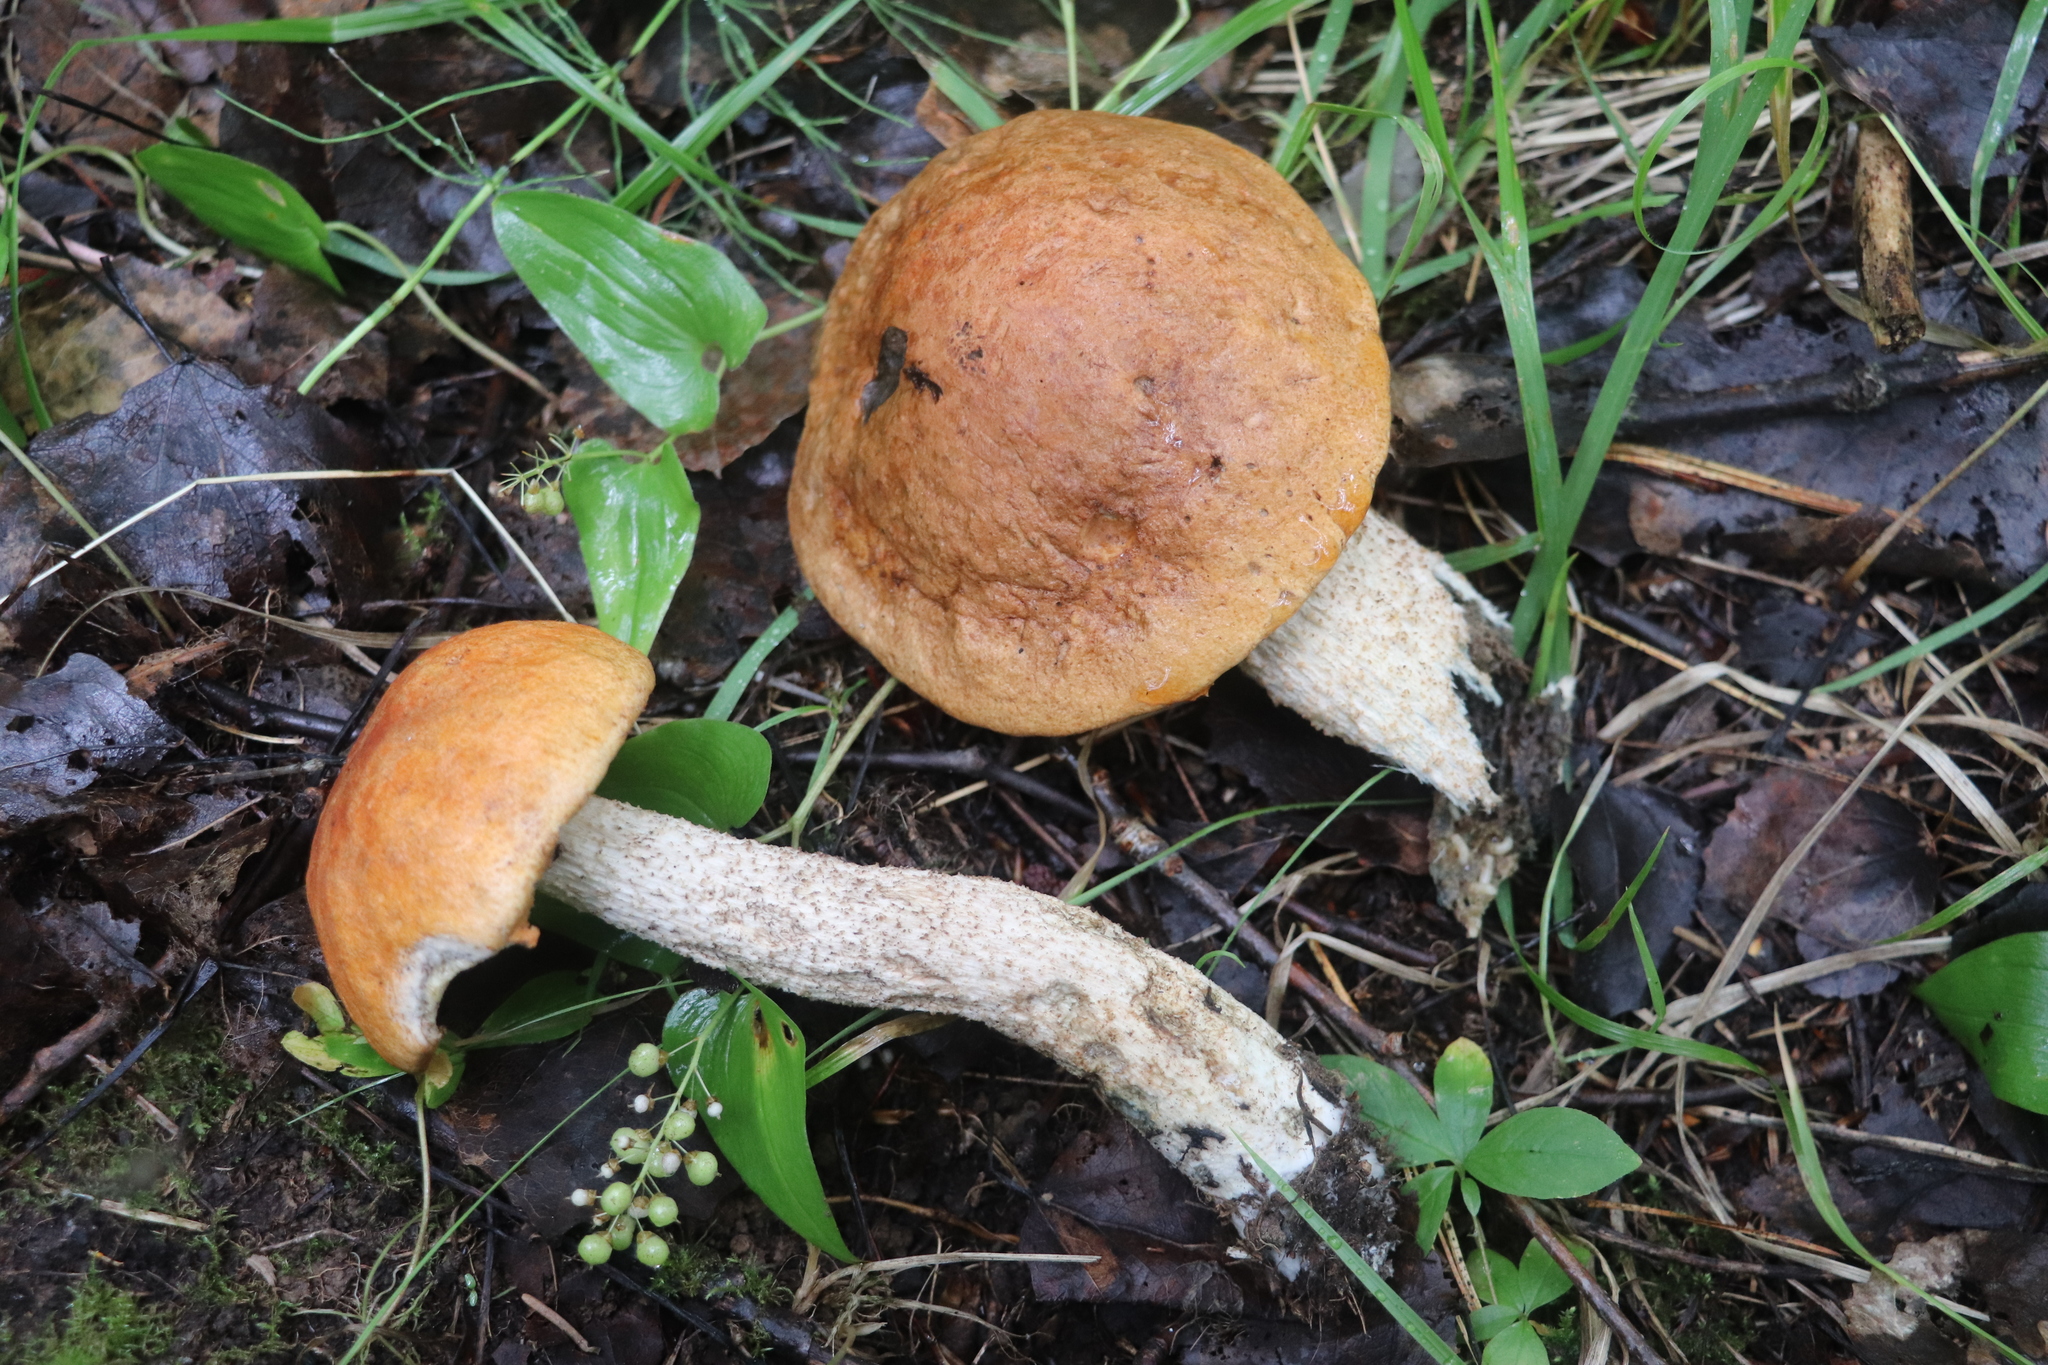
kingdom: Fungi
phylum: Basidiomycota
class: Agaricomycetes
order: Boletales
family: Boletaceae
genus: Leccinum
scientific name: Leccinum albostipitatum
